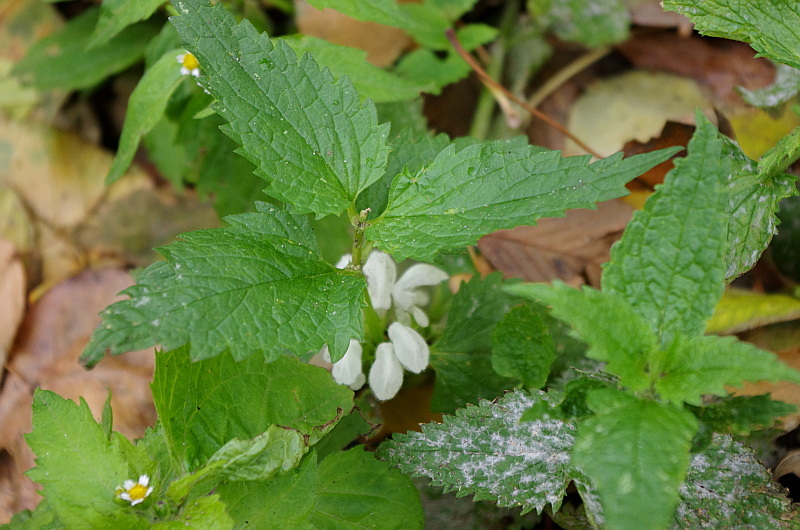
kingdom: Plantae
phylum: Tracheophyta
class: Magnoliopsida
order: Lamiales
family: Lamiaceae
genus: Lamium
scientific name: Lamium album
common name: White dead-nettle
